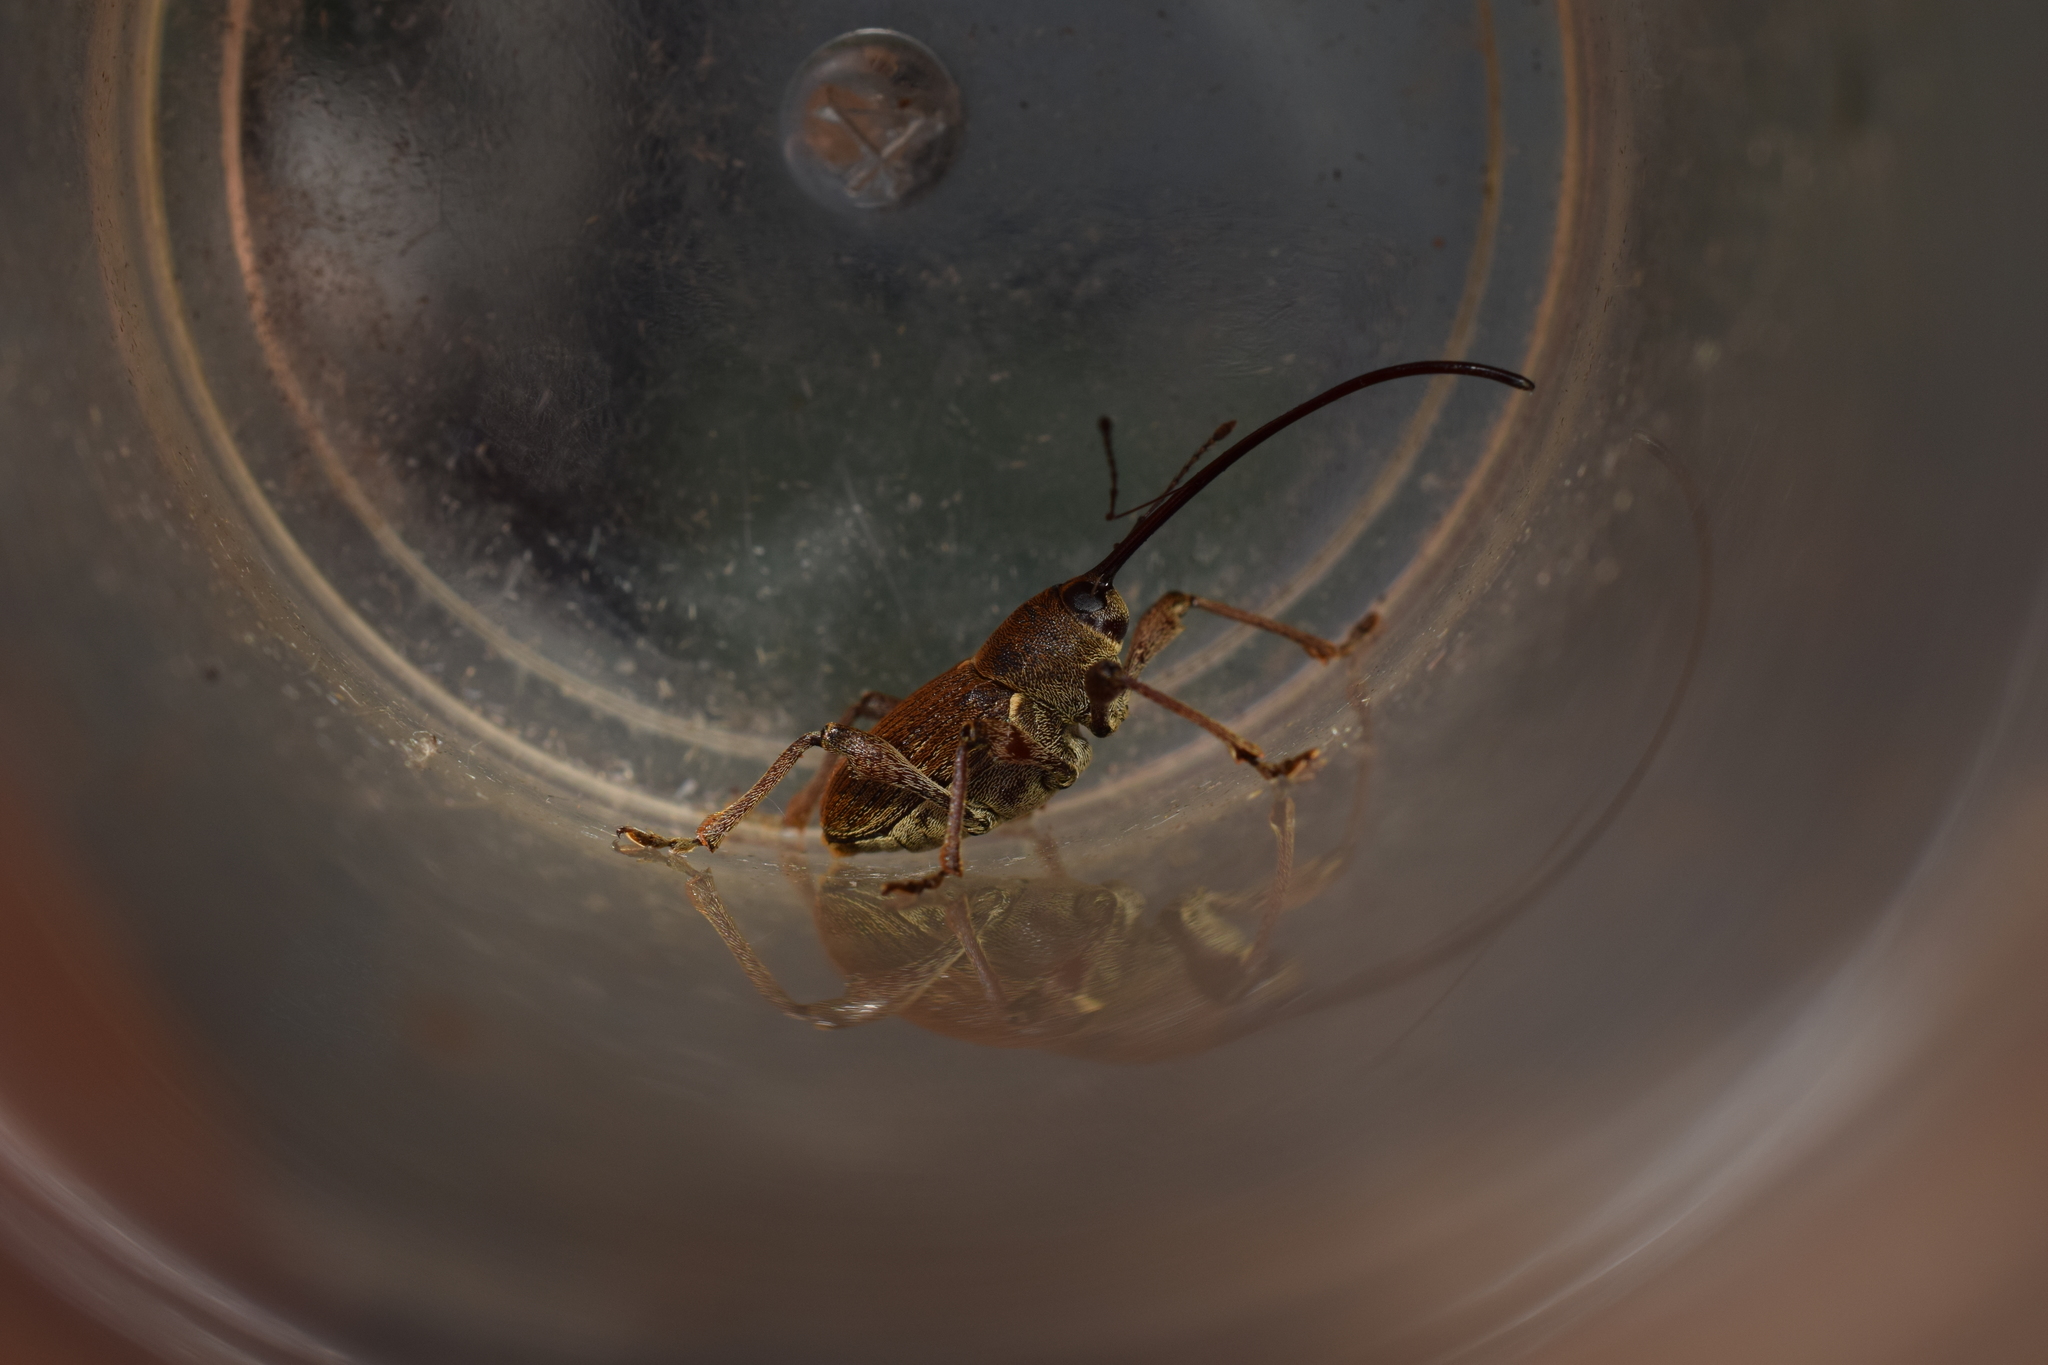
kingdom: Animalia
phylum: Arthropoda
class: Insecta
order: Coleoptera
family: Curculionidae
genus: Curculio
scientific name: Curculio camelliae
